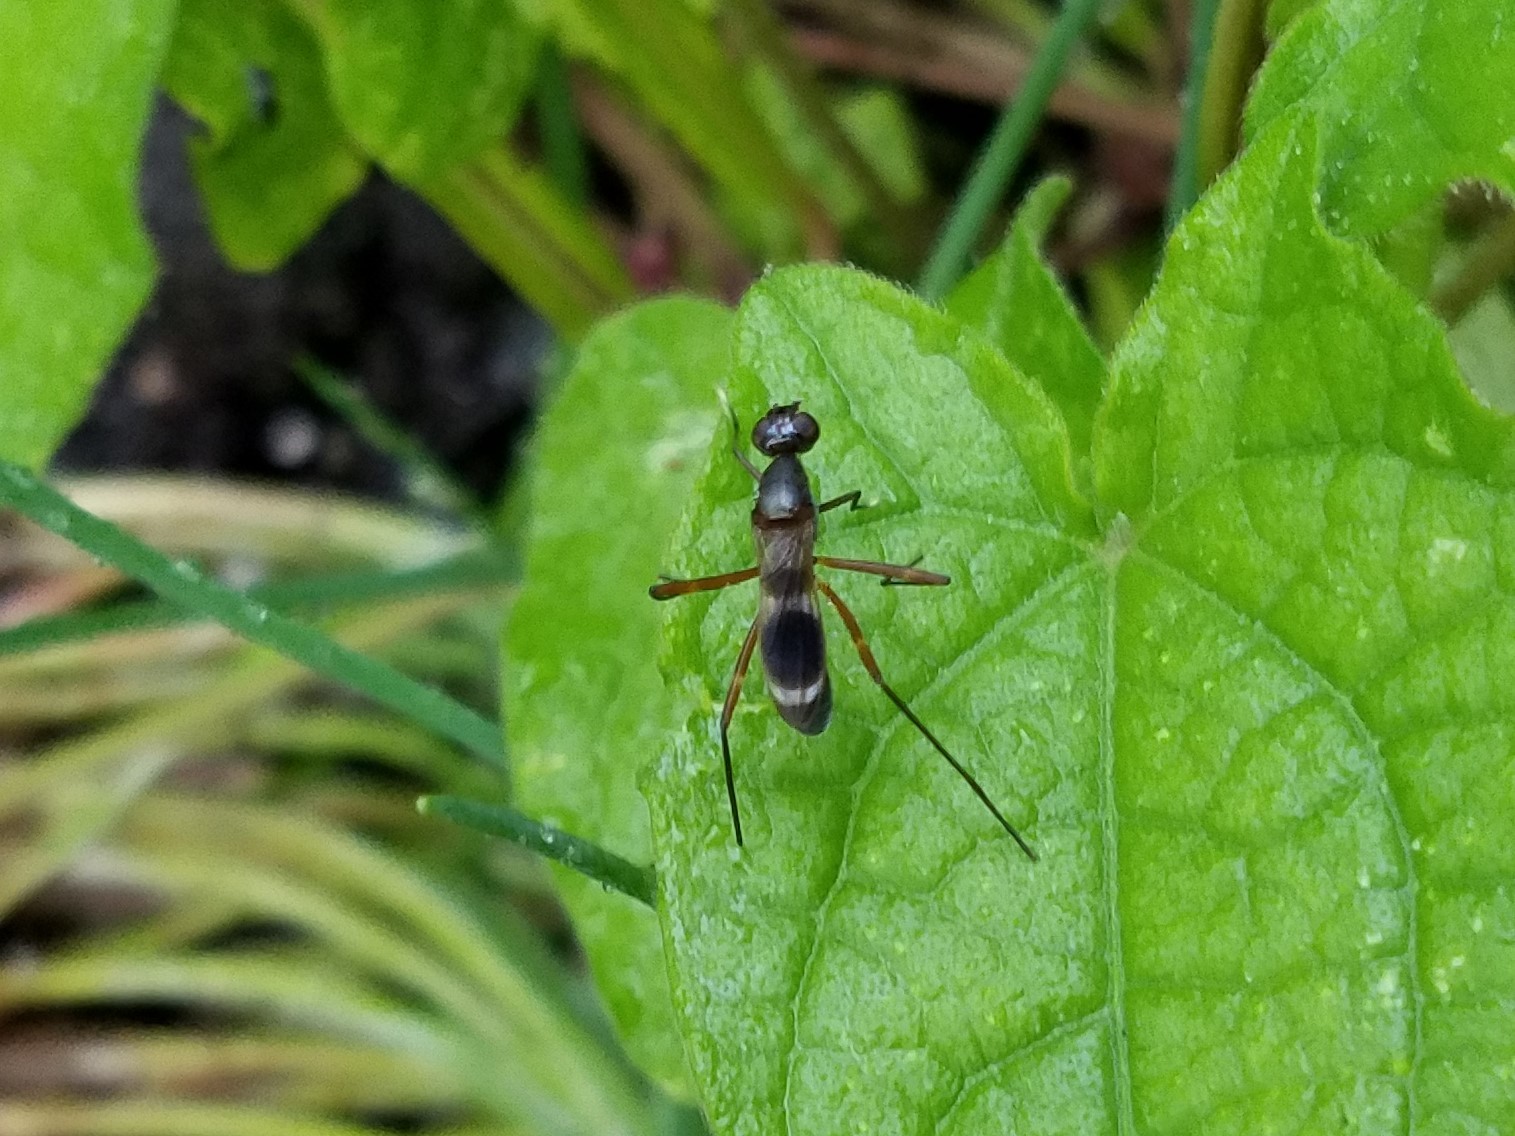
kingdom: Animalia
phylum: Arthropoda
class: Insecta
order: Diptera
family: Micropezidae
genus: Taeniaptera
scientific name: Taeniaptera trivittata
